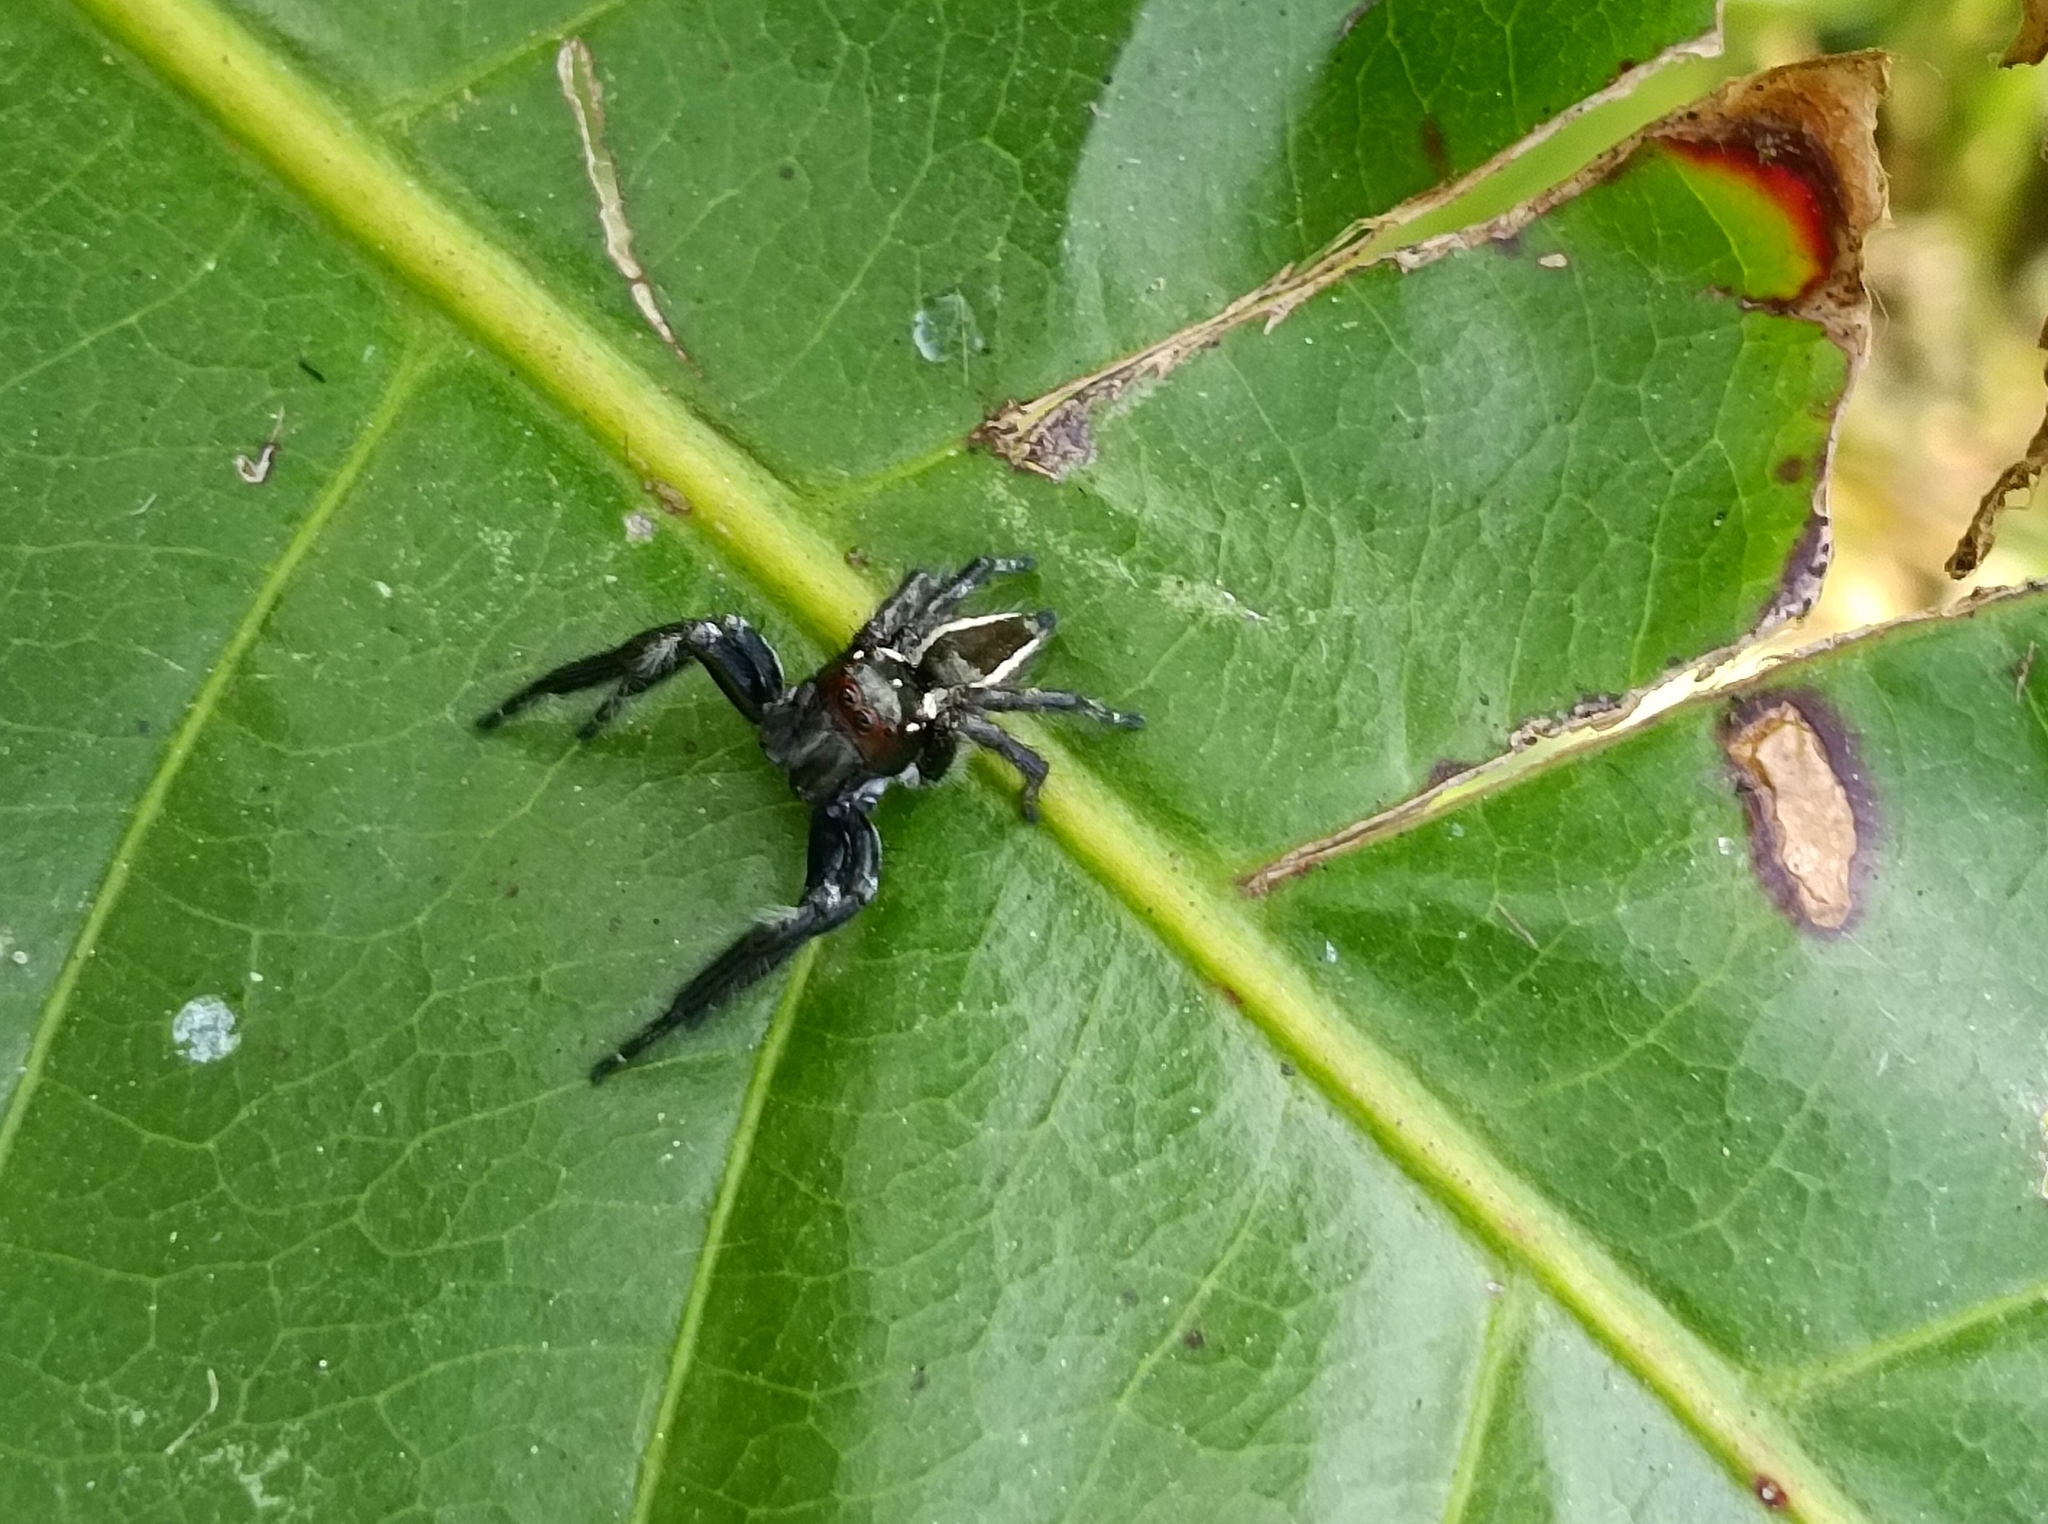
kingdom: Animalia
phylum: Arthropoda
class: Arachnida
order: Araneae
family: Salticidae
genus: Carrhotus
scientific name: Carrhotus viduus
